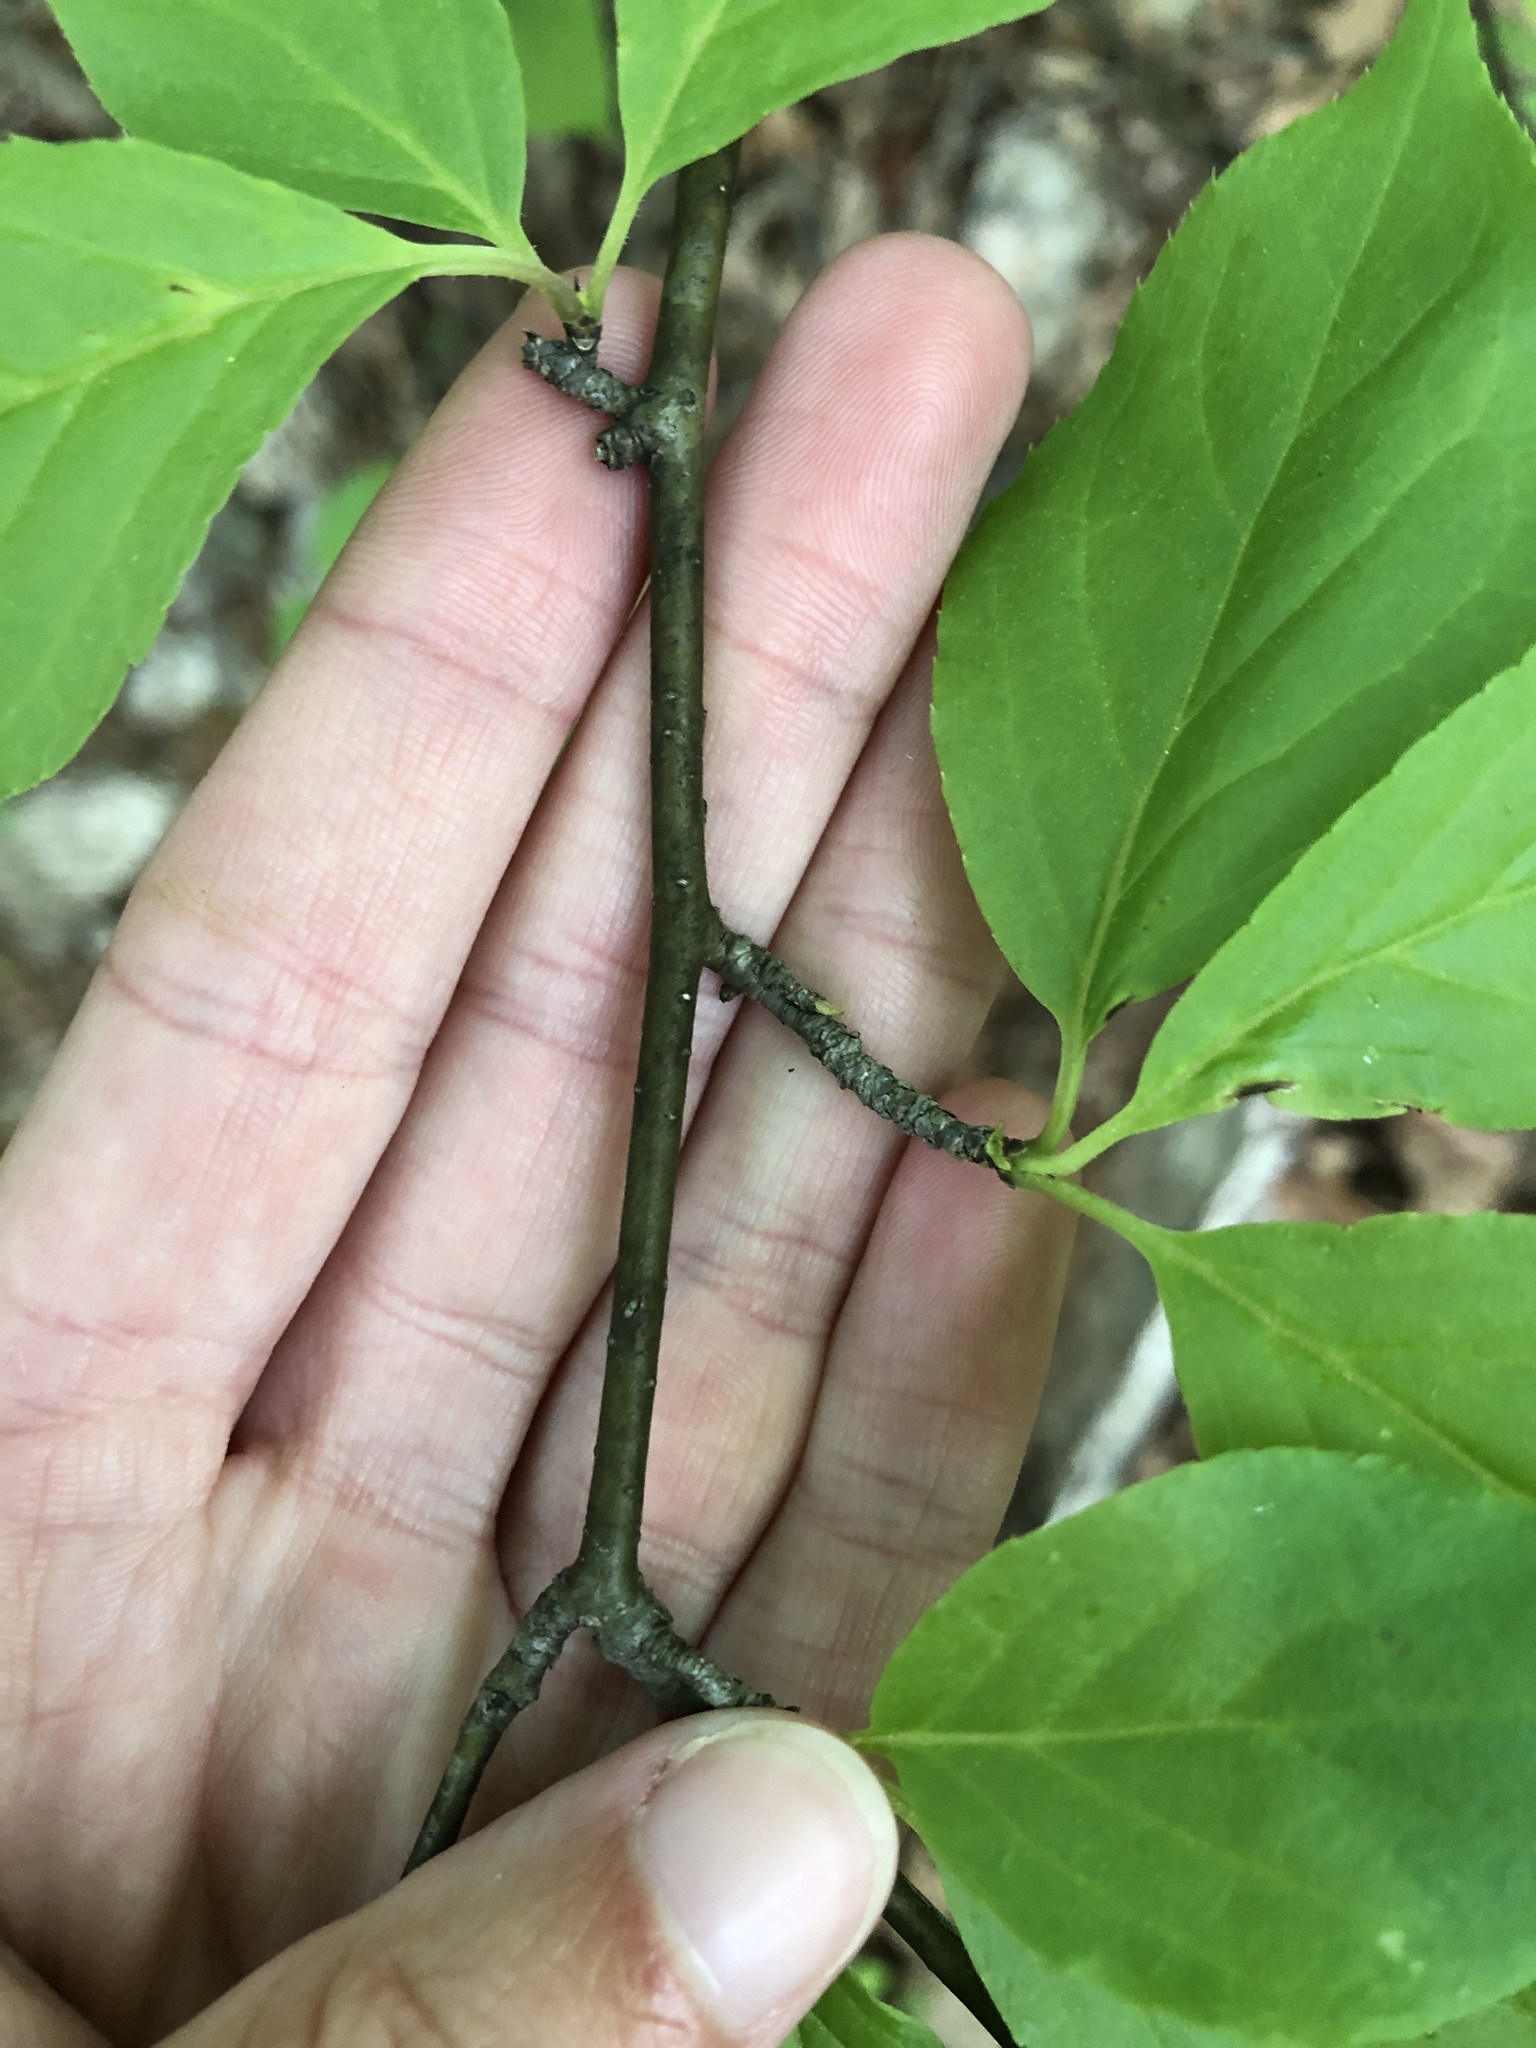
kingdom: Plantae
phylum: Tracheophyta
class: Magnoliopsida
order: Aquifoliales
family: Aquifoliaceae
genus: Ilex
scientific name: Ilex montana
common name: Mountain winterberry
